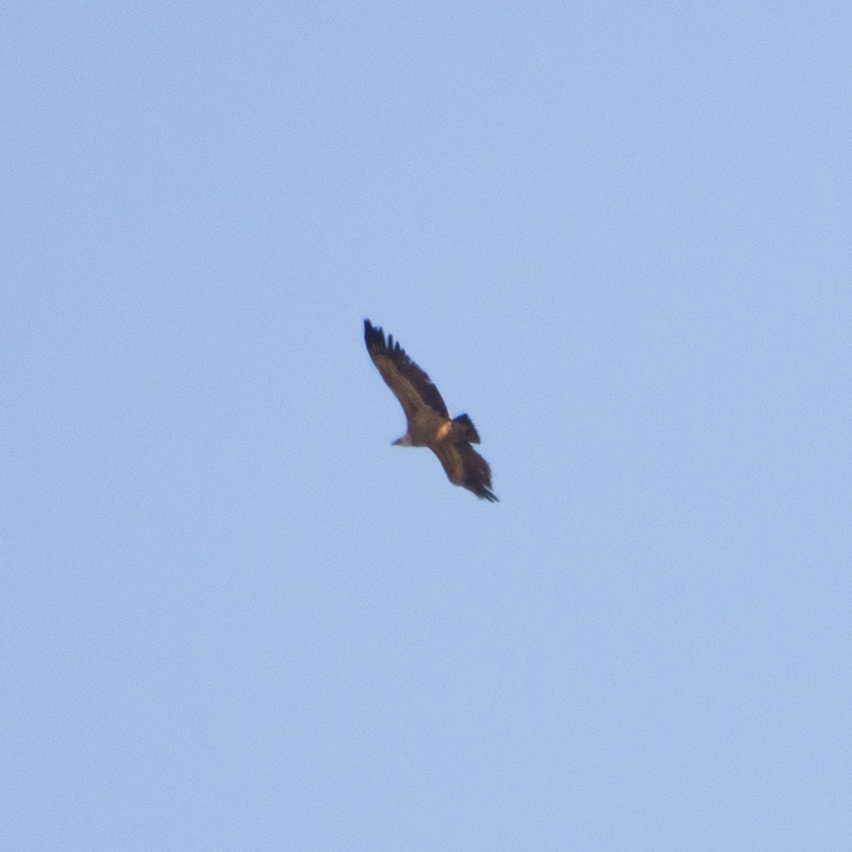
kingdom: Animalia
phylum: Chordata
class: Aves
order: Accipitriformes
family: Accipitridae
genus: Gyps
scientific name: Gyps fulvus
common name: Griffon vulture
